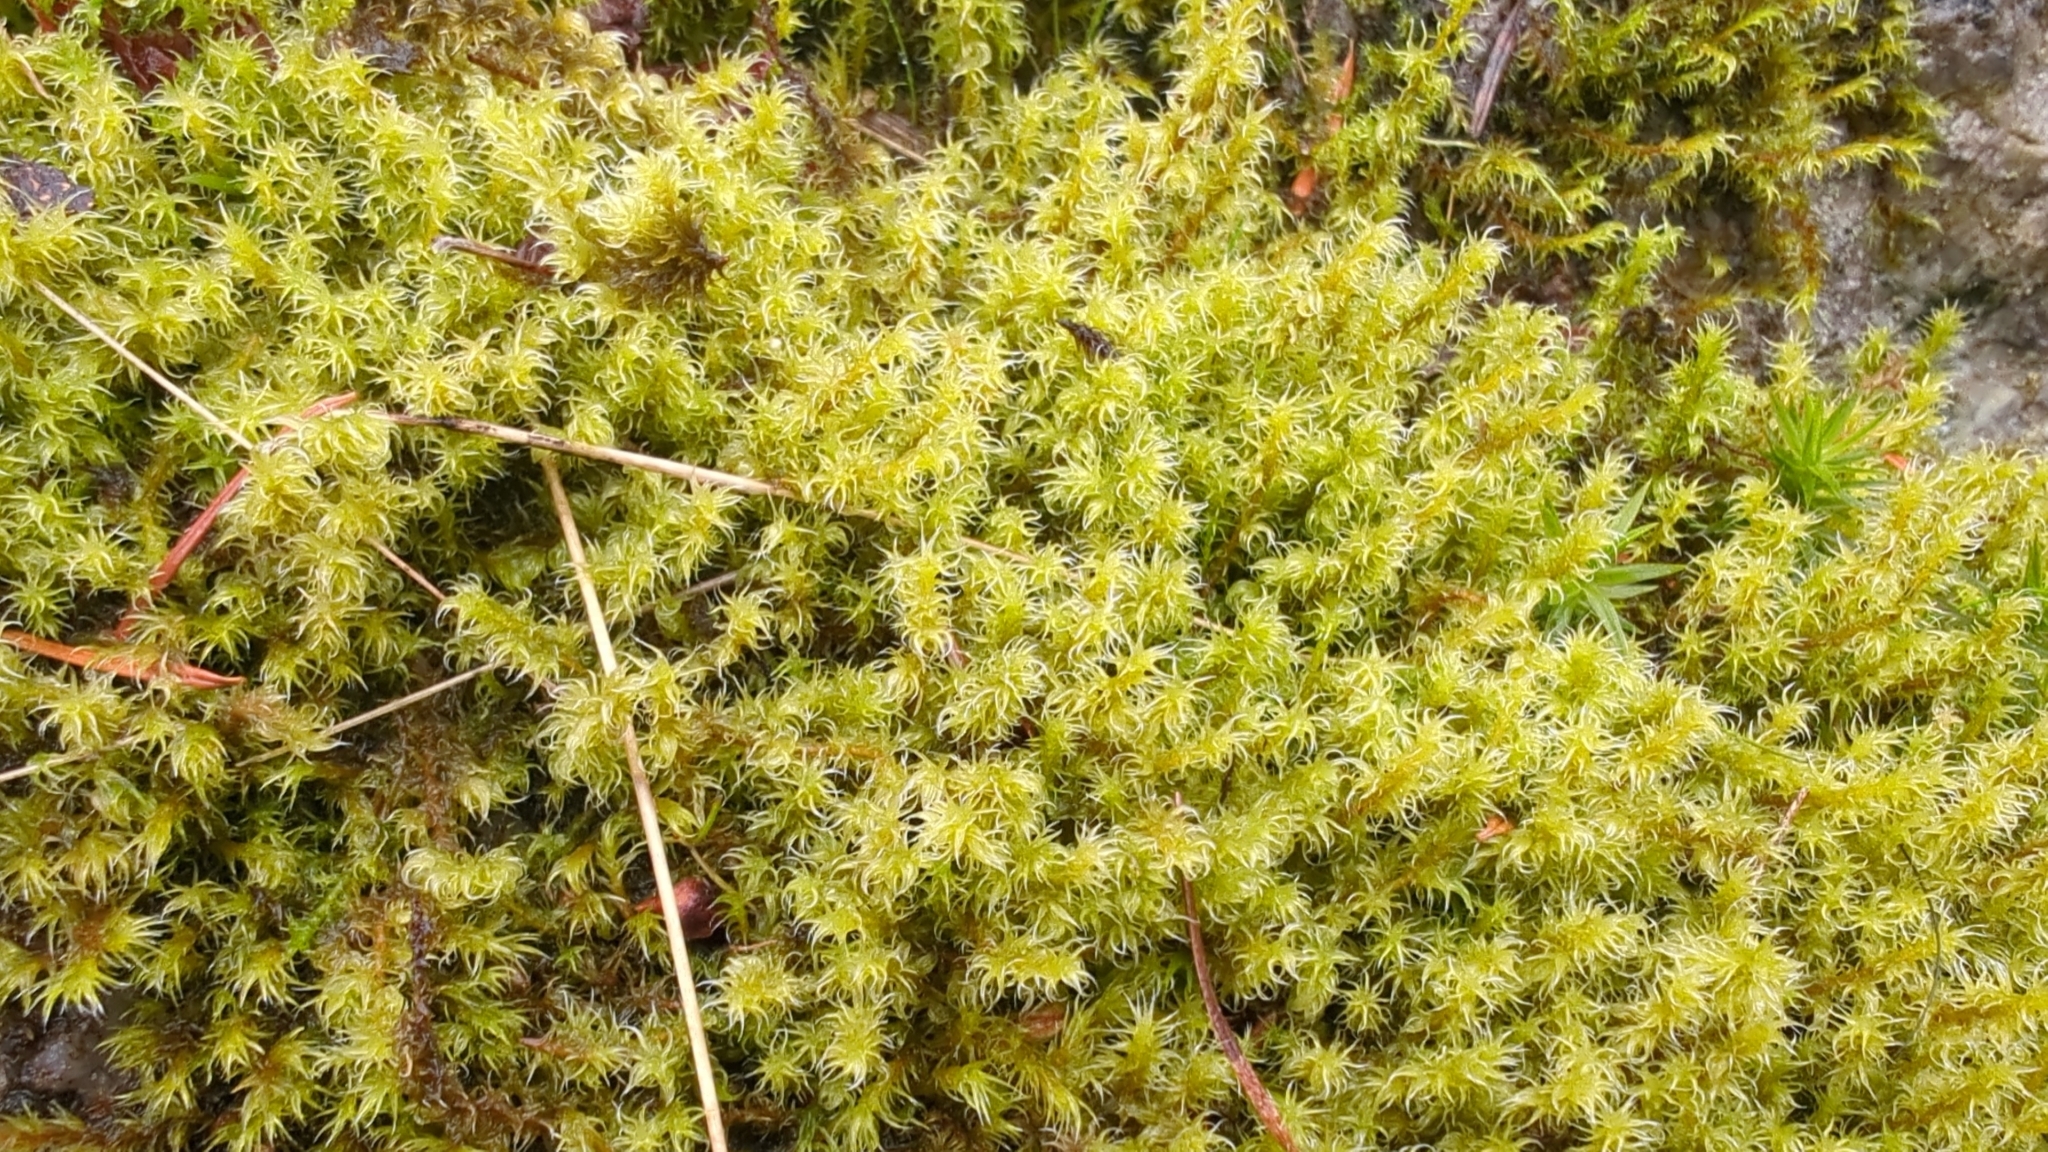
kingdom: Plantae
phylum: Bryophyta
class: Bryopsida
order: Grimmiales
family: Grimmiaceae
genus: Niphotrichum
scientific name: Niphotrichum elongatum
